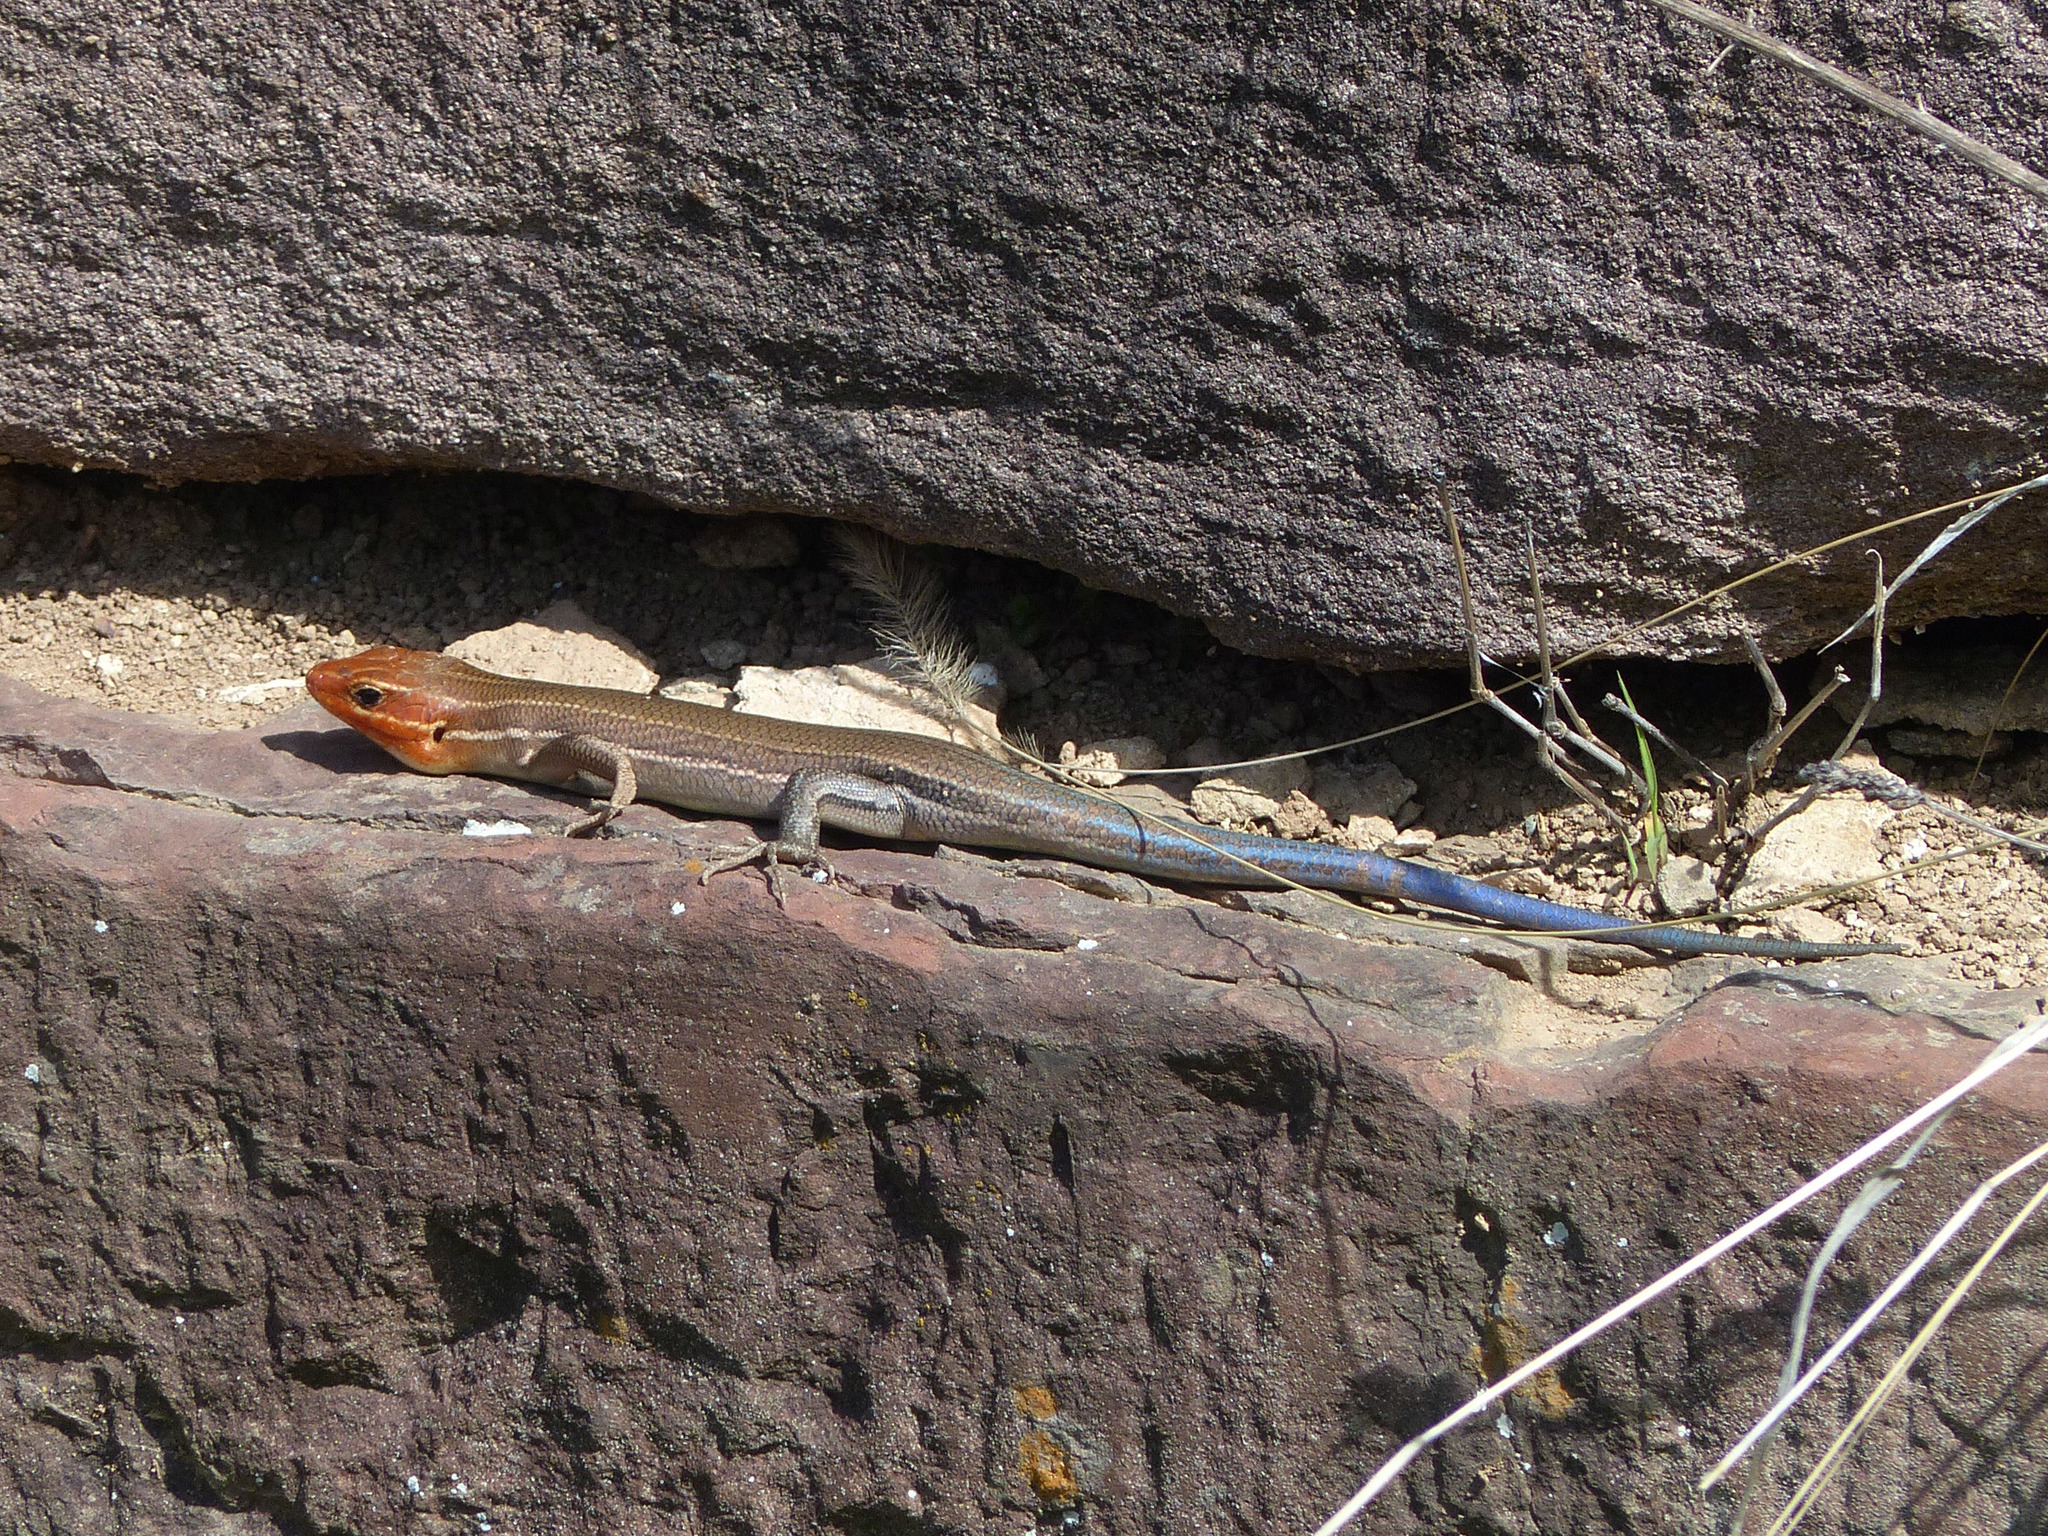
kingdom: Animalia
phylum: Chordata
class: Squamata
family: Scincidae
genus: Plestiodon
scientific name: Plestiodon laticeps
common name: Broadhead skink
